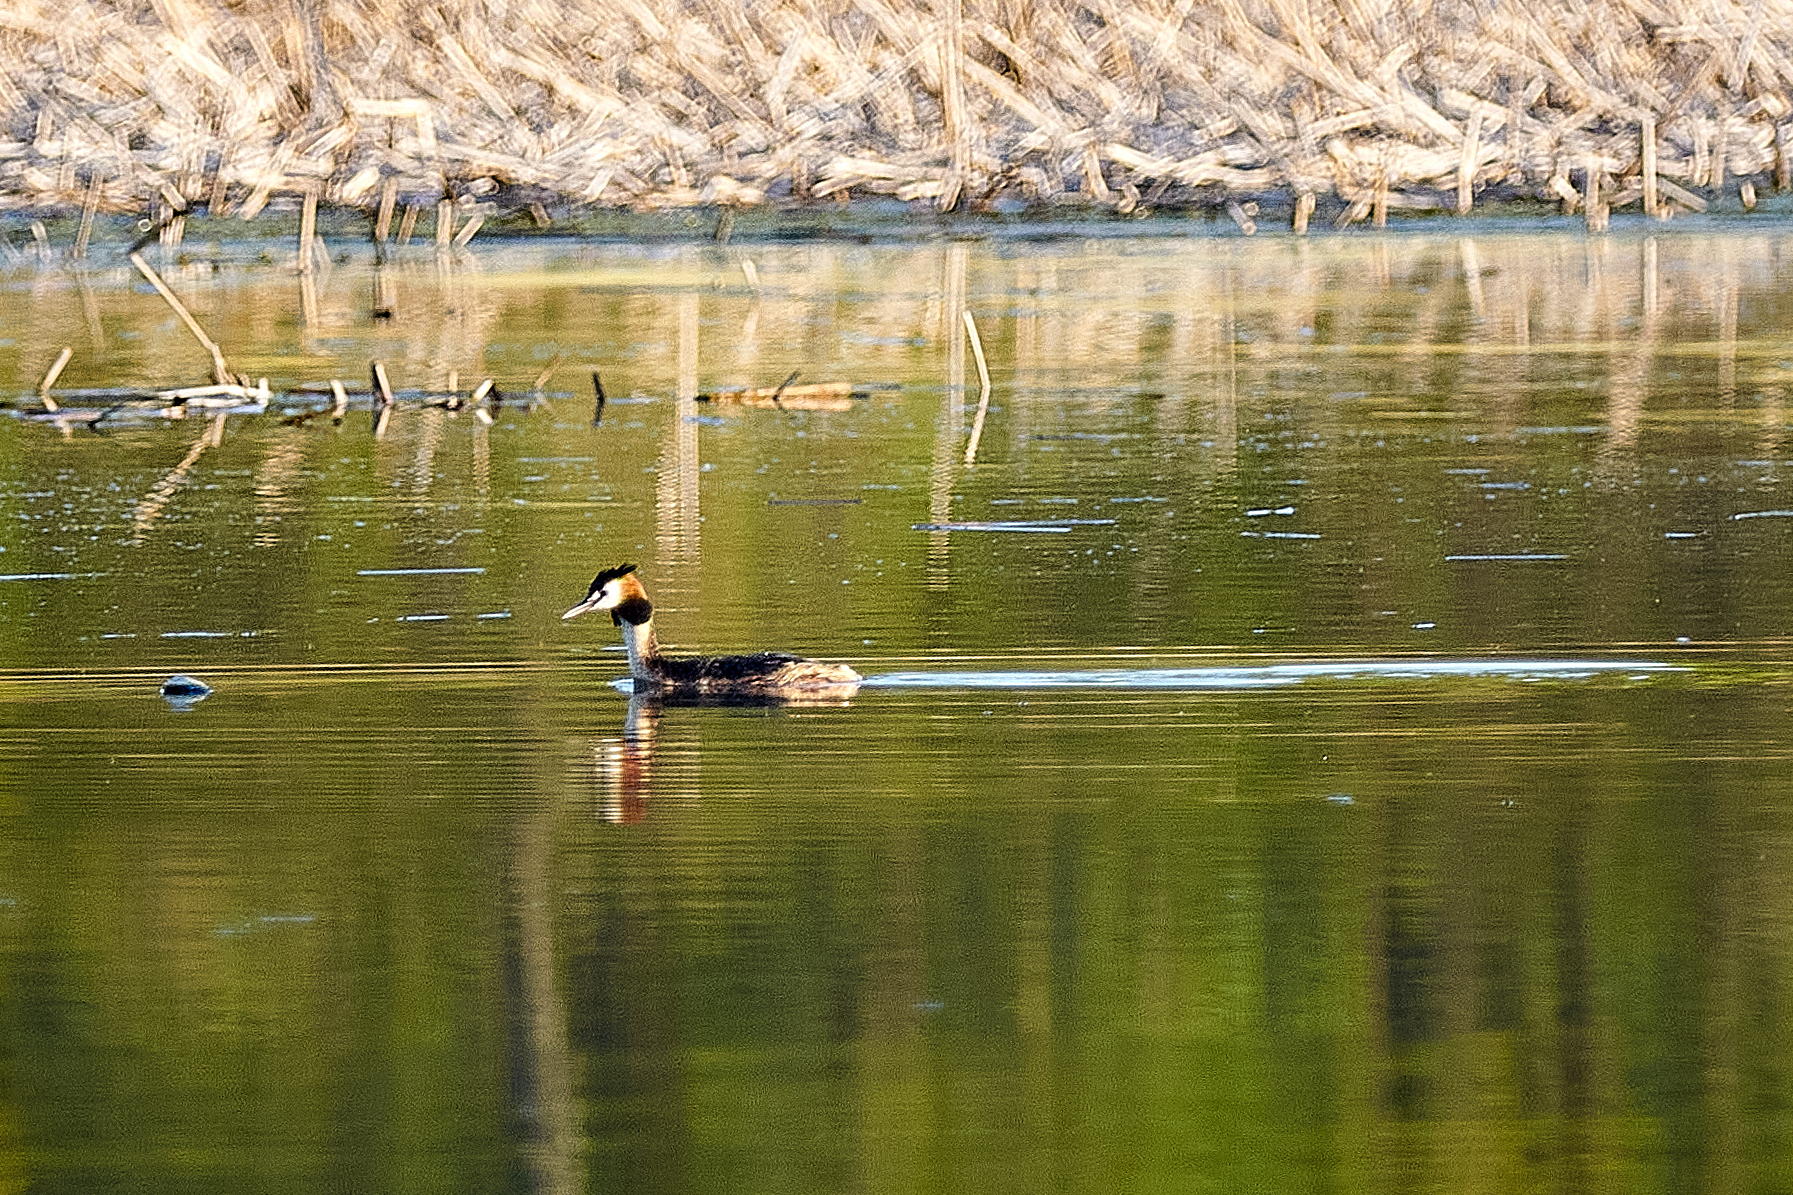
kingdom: Animalia
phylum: Chordata
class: Aves
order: Podicipediformes
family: Podicipedidae
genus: Podiceps
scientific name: Podiceps cristatus
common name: Great crested grebe
